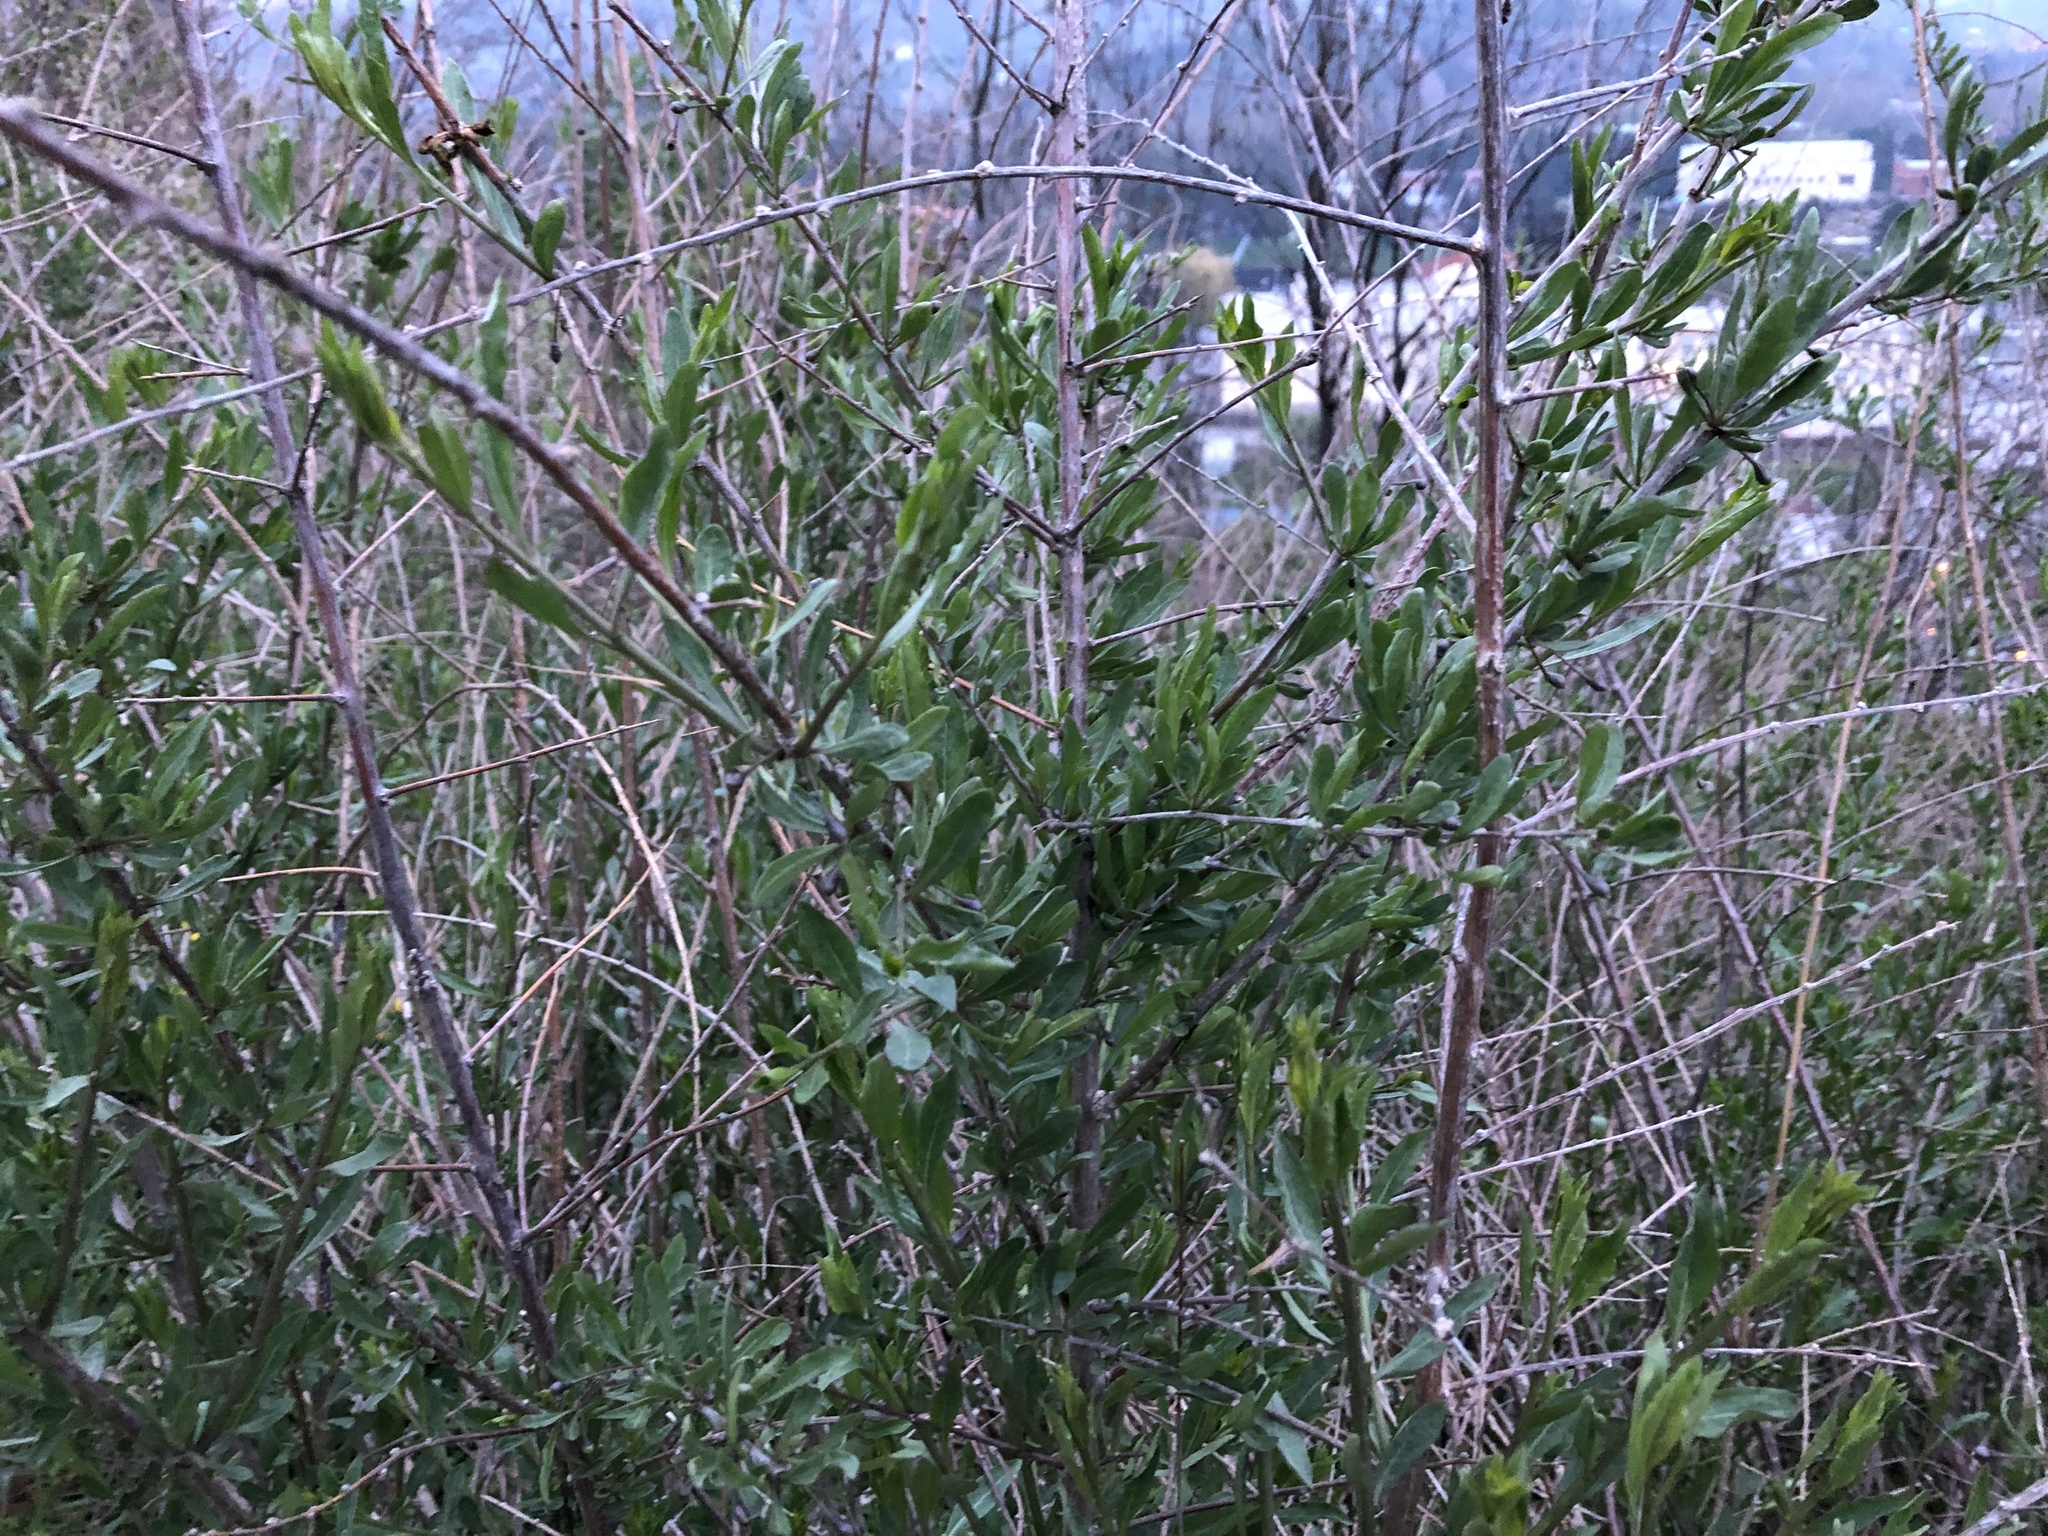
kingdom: Plantae
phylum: Tracheophyta
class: Magnoliopsida
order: Solanales
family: Solanaceae
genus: Lycium
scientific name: Lycium barbarum
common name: Duke of argyll's teaplant
